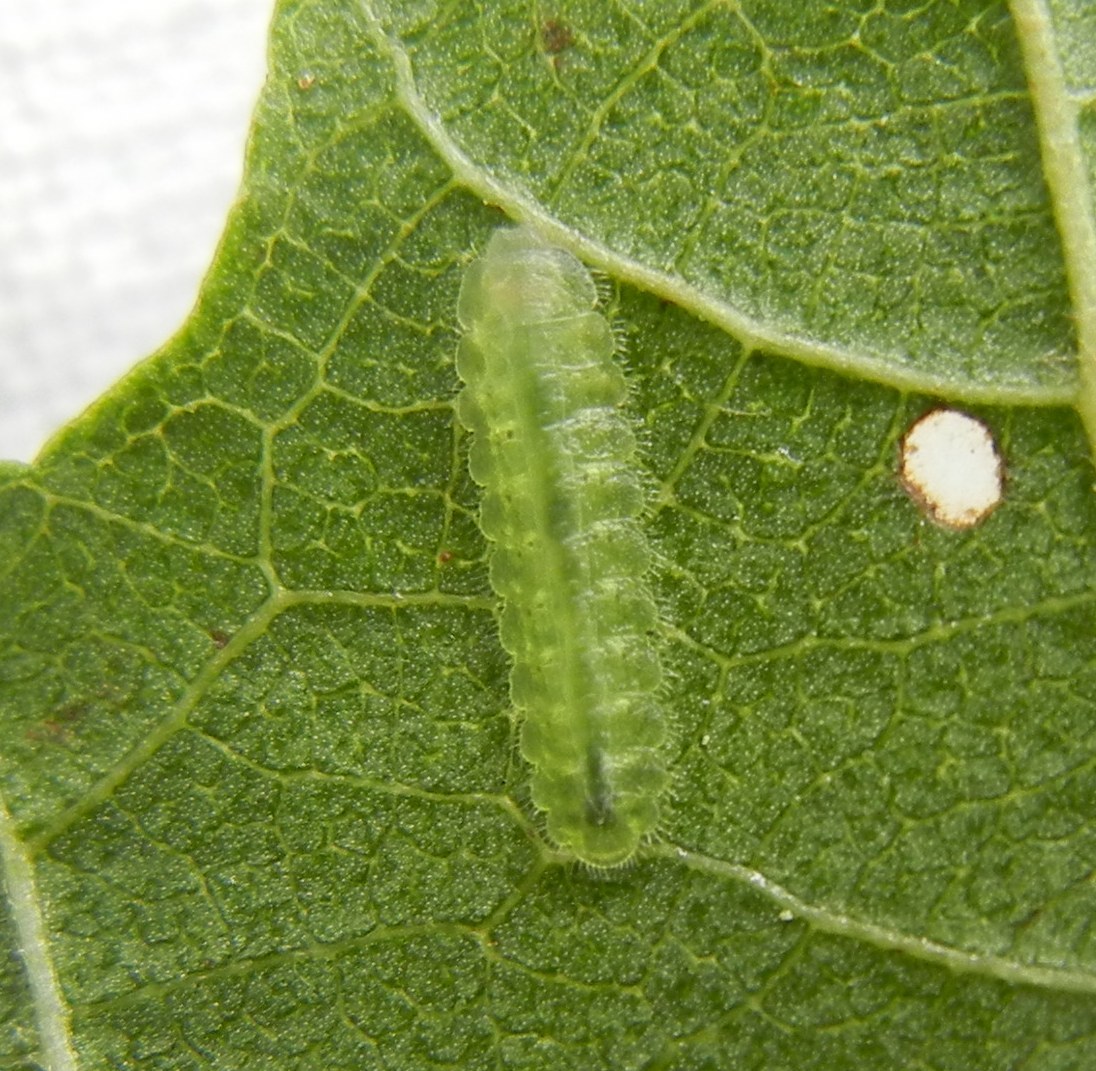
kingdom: Animalia
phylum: Arthropoda
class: Insecta
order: Hymenoptera
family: Tenthredinidae
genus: Platycampus
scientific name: Platycampus luridiventris
